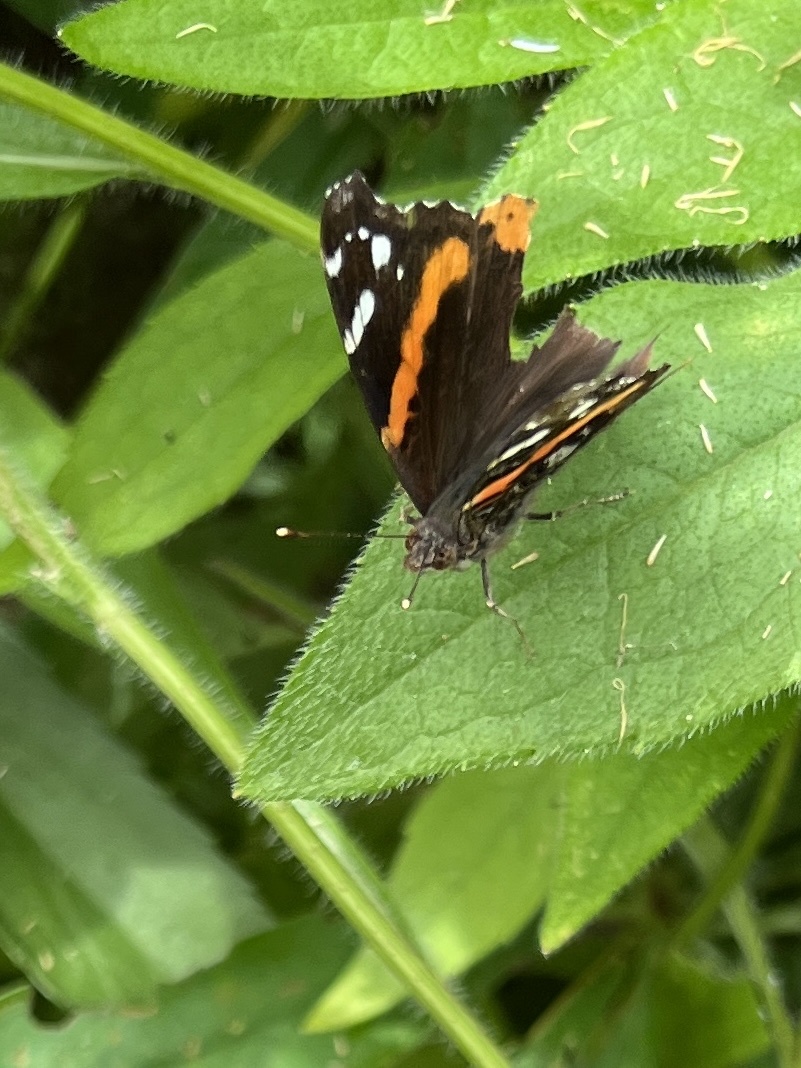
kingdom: Animalia
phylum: Arthropoda
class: Insecta
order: Lepidoptera
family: Nymphalidae
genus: Vanessa
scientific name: Vanessa atalanta
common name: Red admiral
